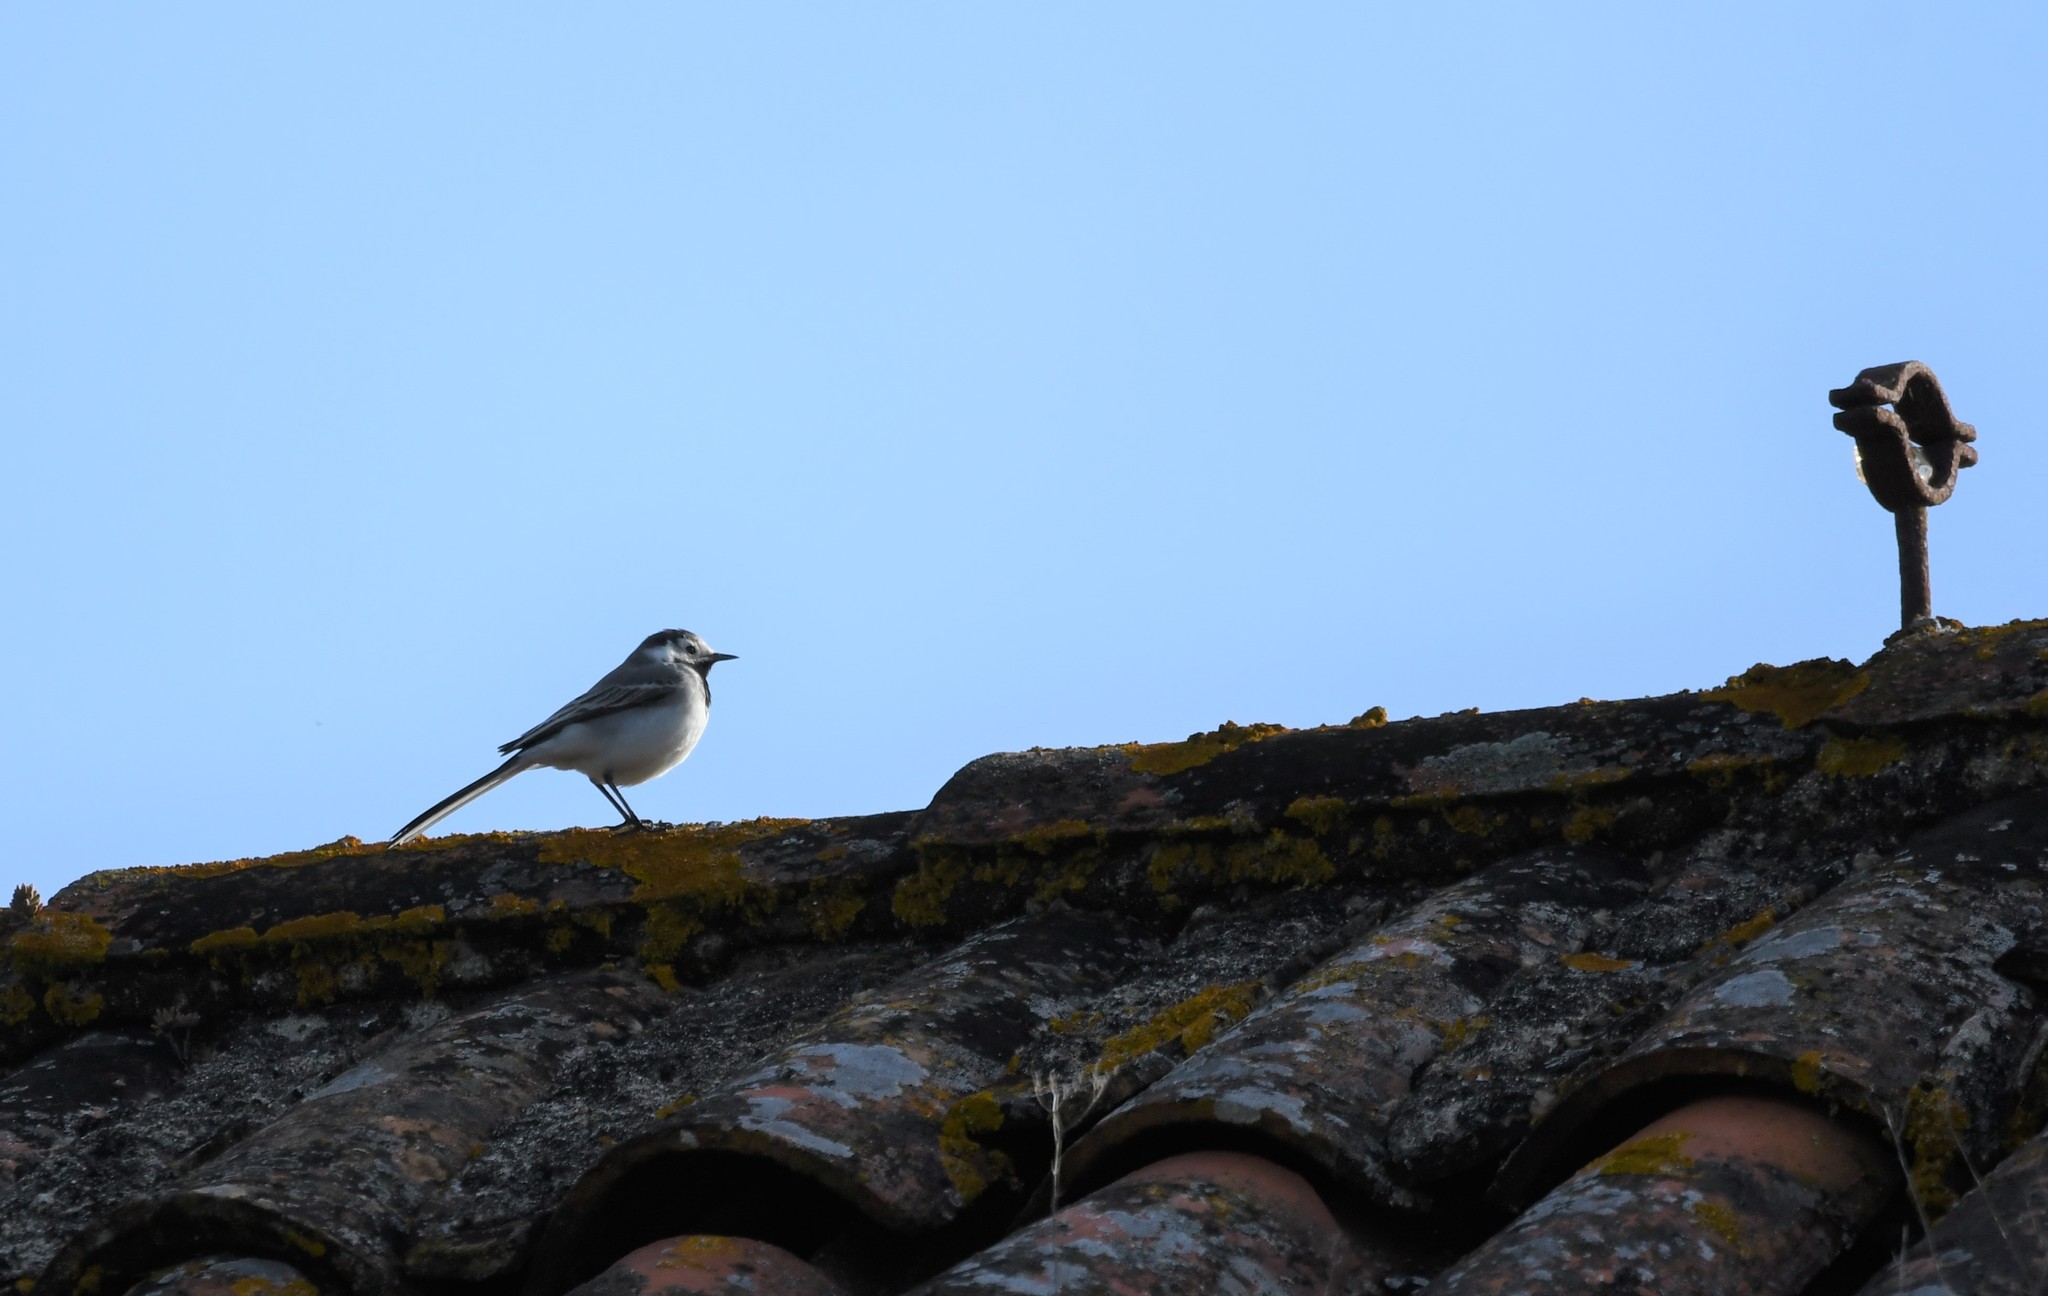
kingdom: Animalia
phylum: Chordata
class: Aves
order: Passeriformes
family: Motacillidae
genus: Motacilla
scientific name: Motacilla alba
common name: White wagtail
